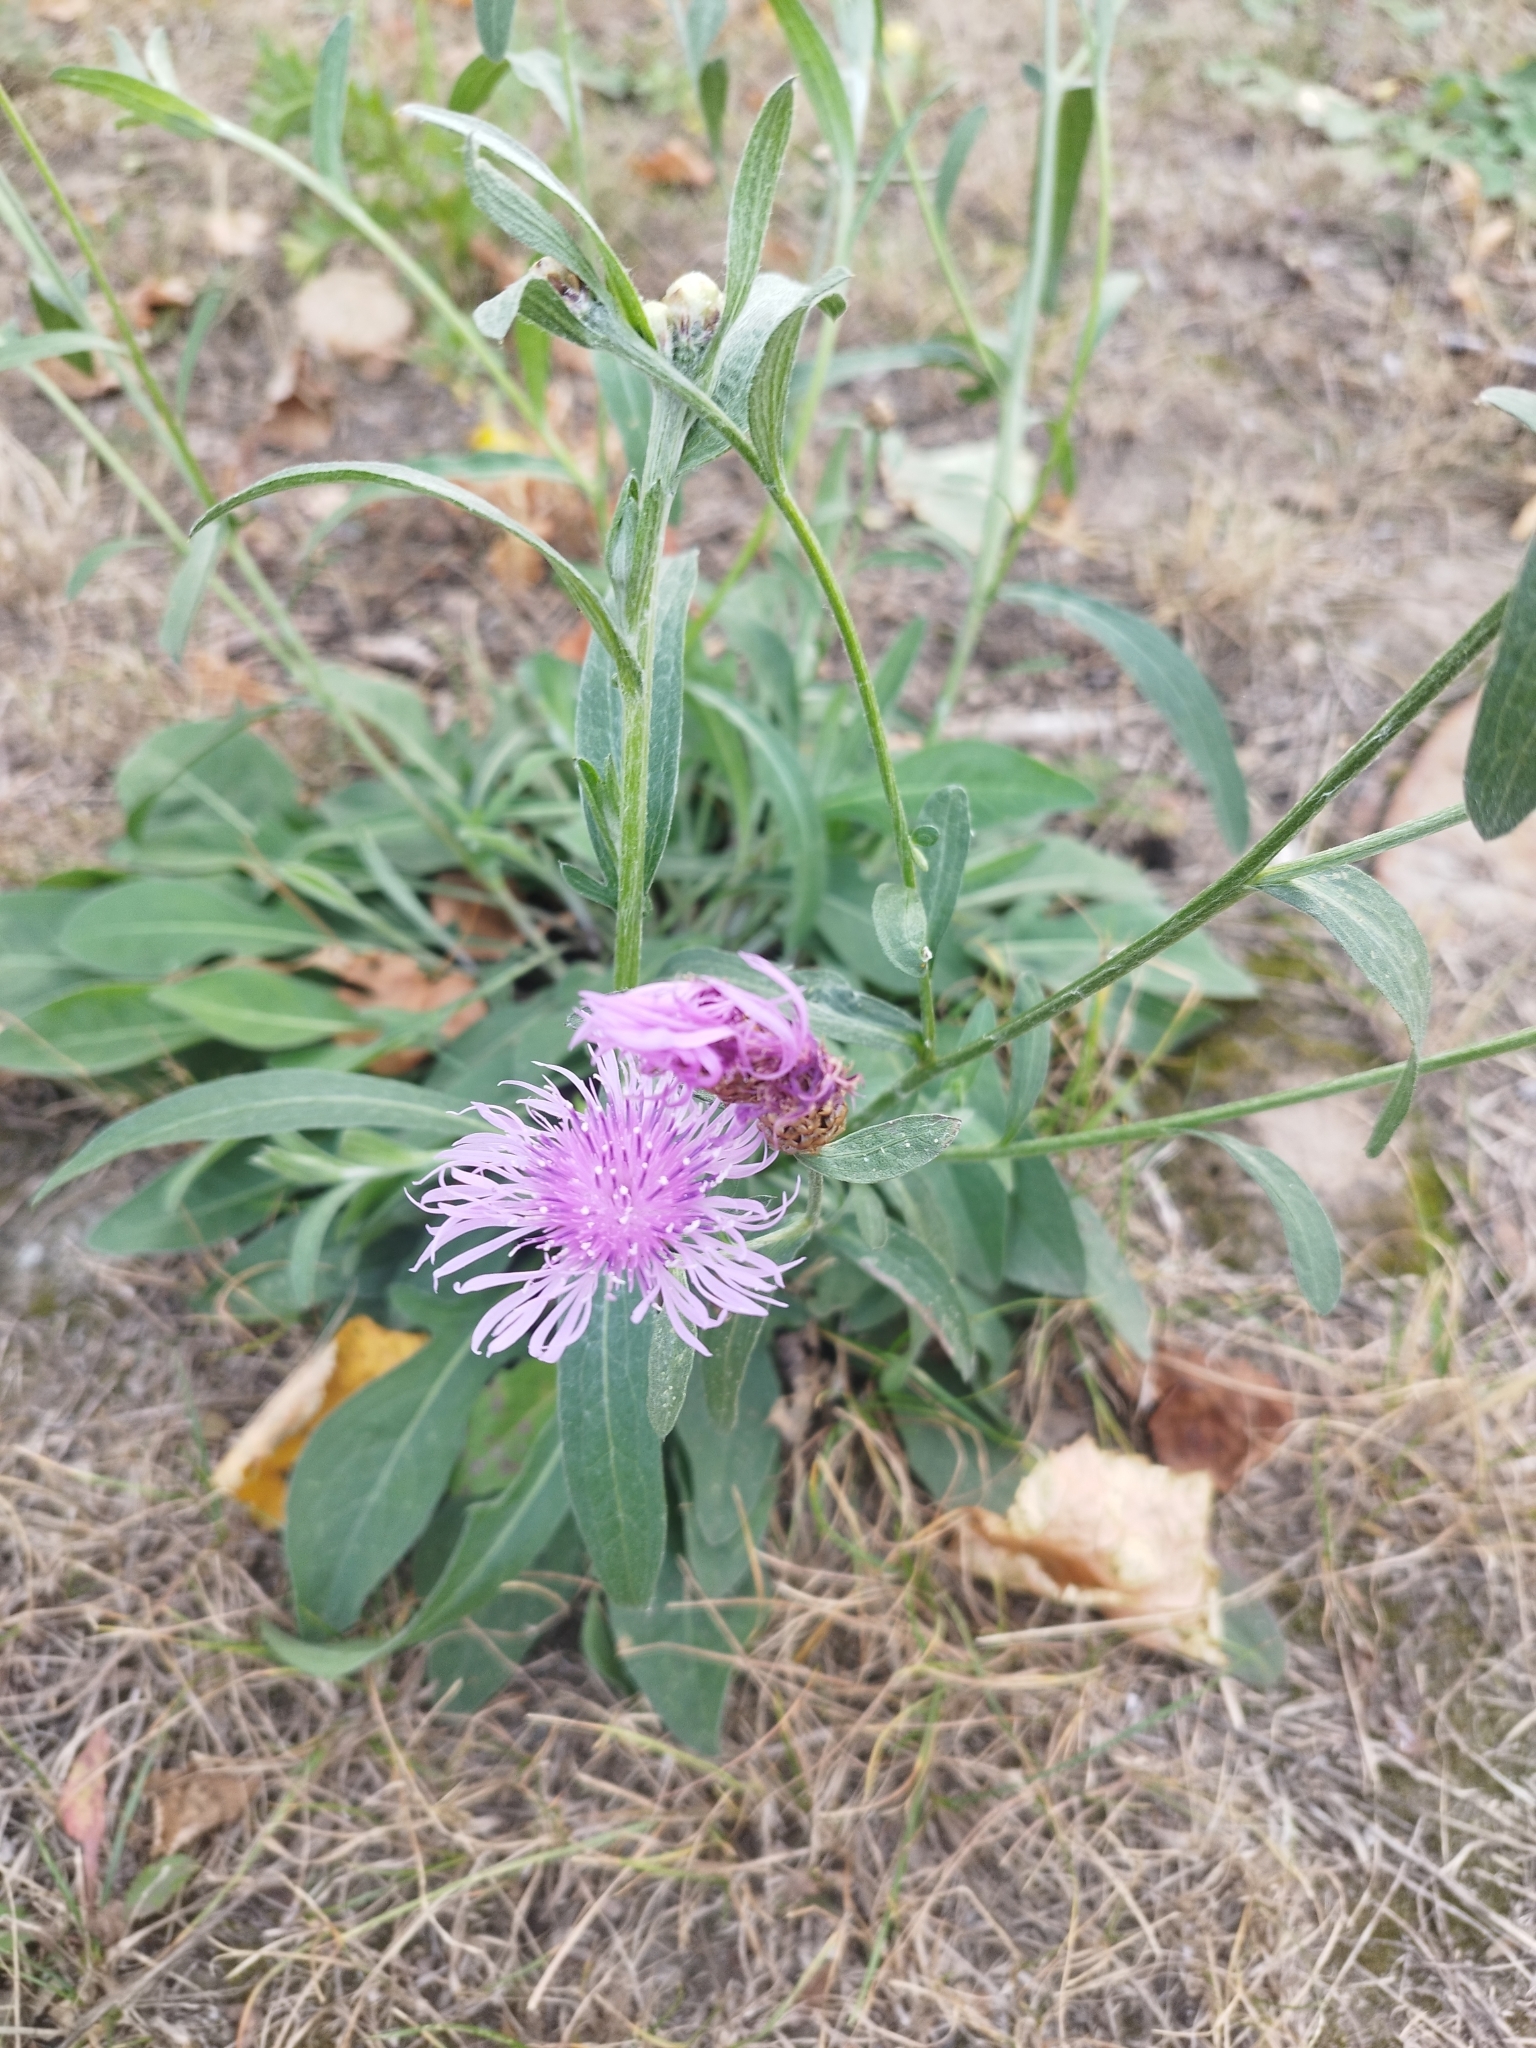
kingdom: Plantae
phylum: Tracheophyta
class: Magnoliopsida
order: Asterales
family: Asteraceae
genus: Centaurea
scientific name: Centaurea jacea
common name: Brown knapweed
